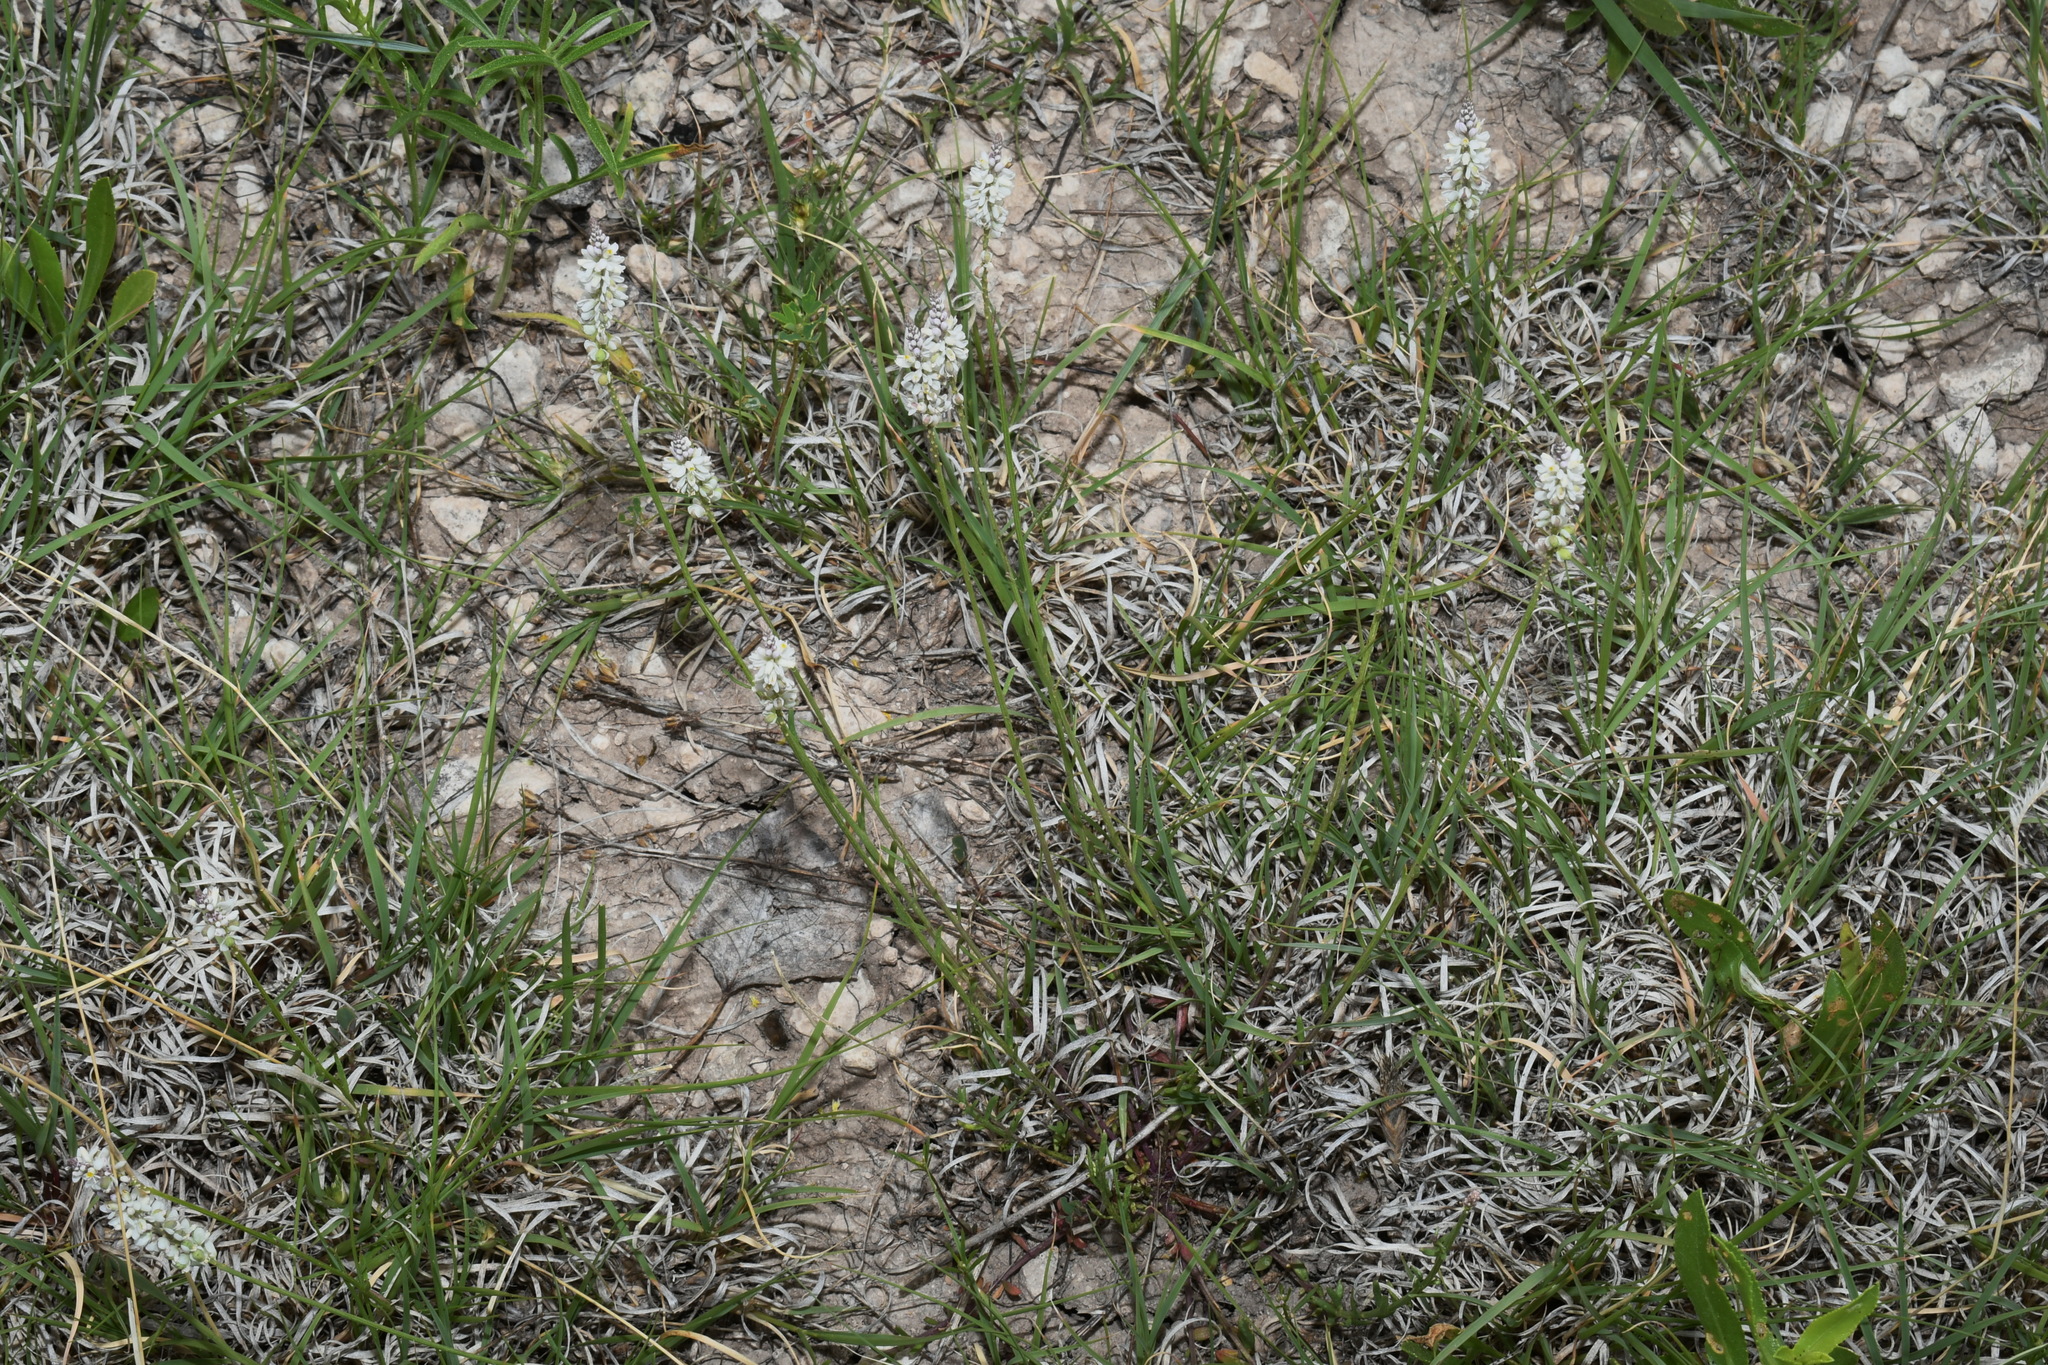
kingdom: Plantae
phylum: Tracheophyta
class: Magnoliopsida
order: Fabales
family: Polygalaceae
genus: Polygala
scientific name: Polygala alba
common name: White milkwort
